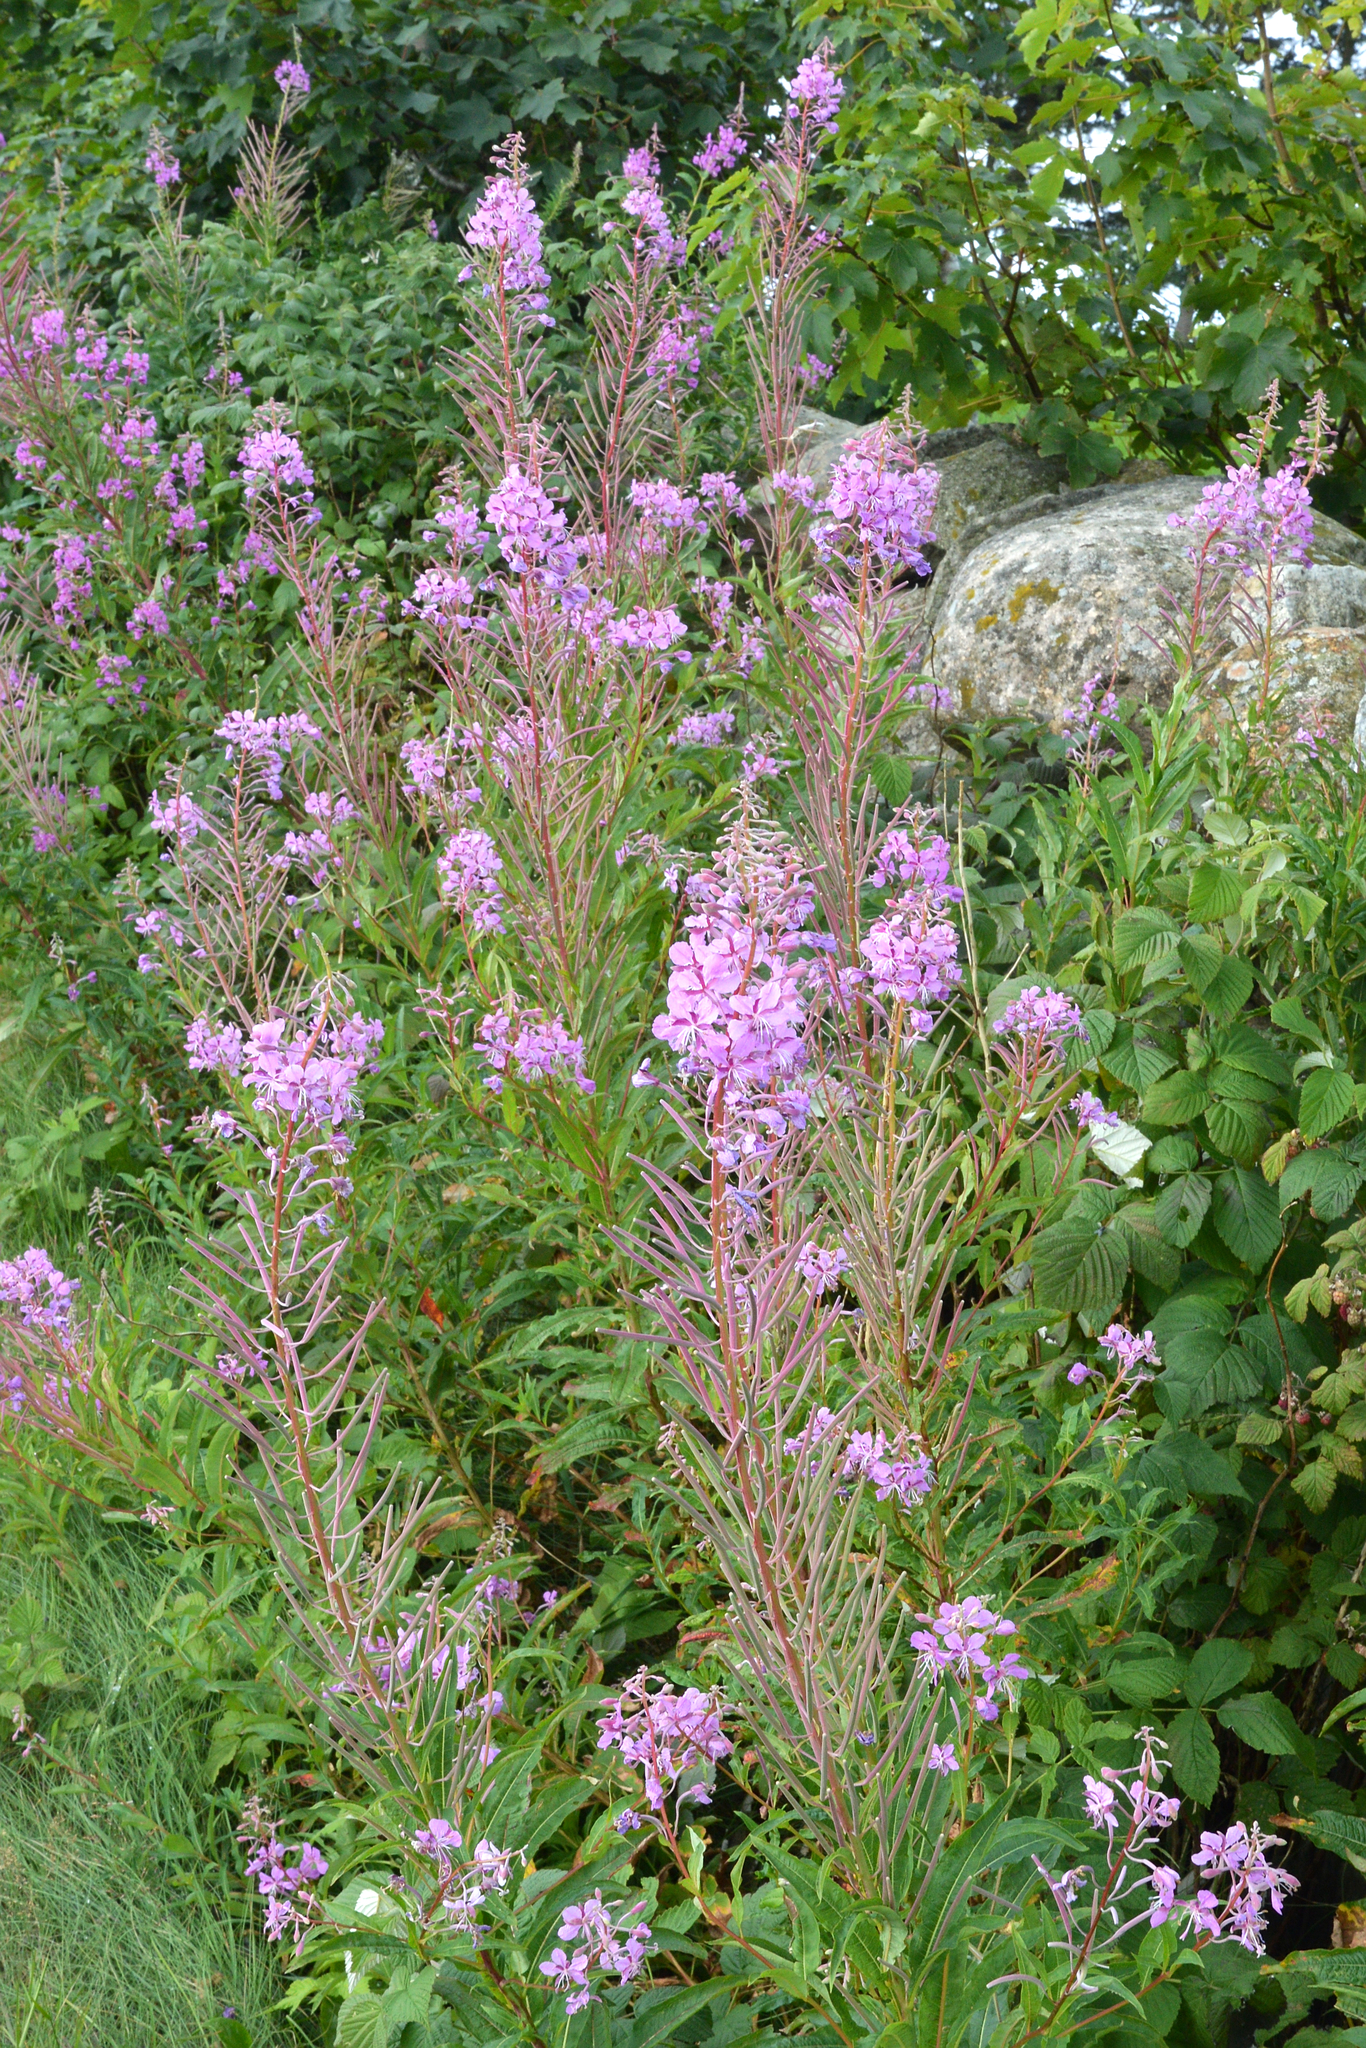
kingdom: Plantae
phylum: Tracheophyta
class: Magnoliopsida
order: Myrtales
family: Onagraceae
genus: Chamaenerion
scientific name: Chamaenerion angustifolium
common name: Fireweed
